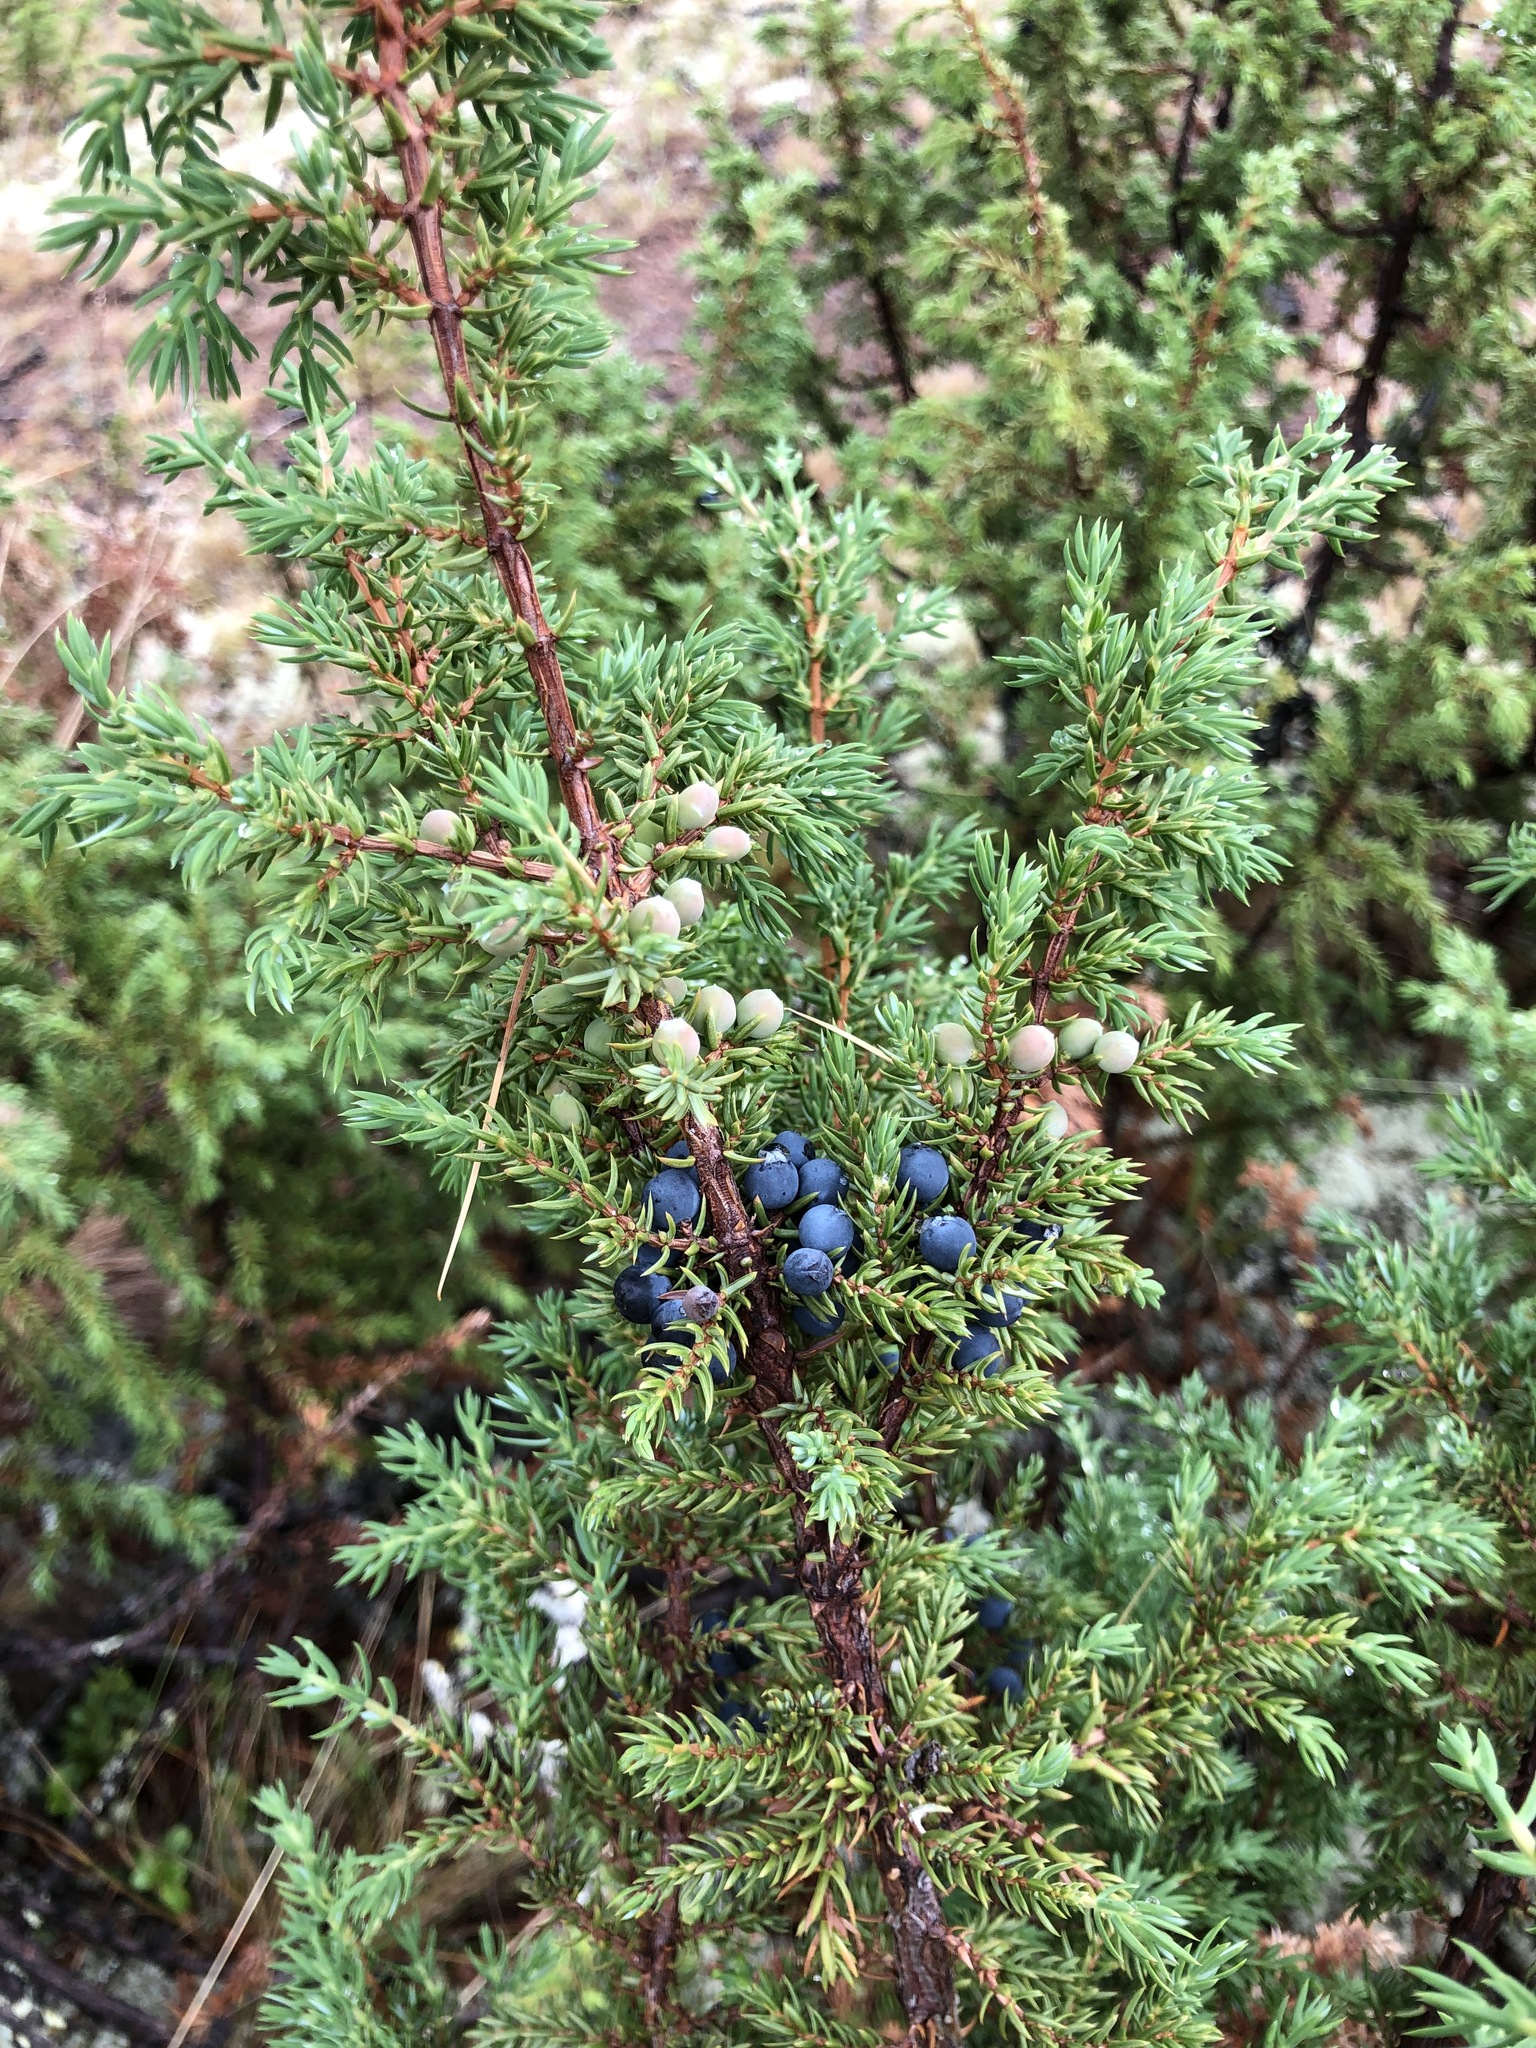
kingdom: Plantae
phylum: Tracheophyta
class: Pinopsida
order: Pinales
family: Cupressaceae
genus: Juniperus
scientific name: Juniperus communis
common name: Common juniper
